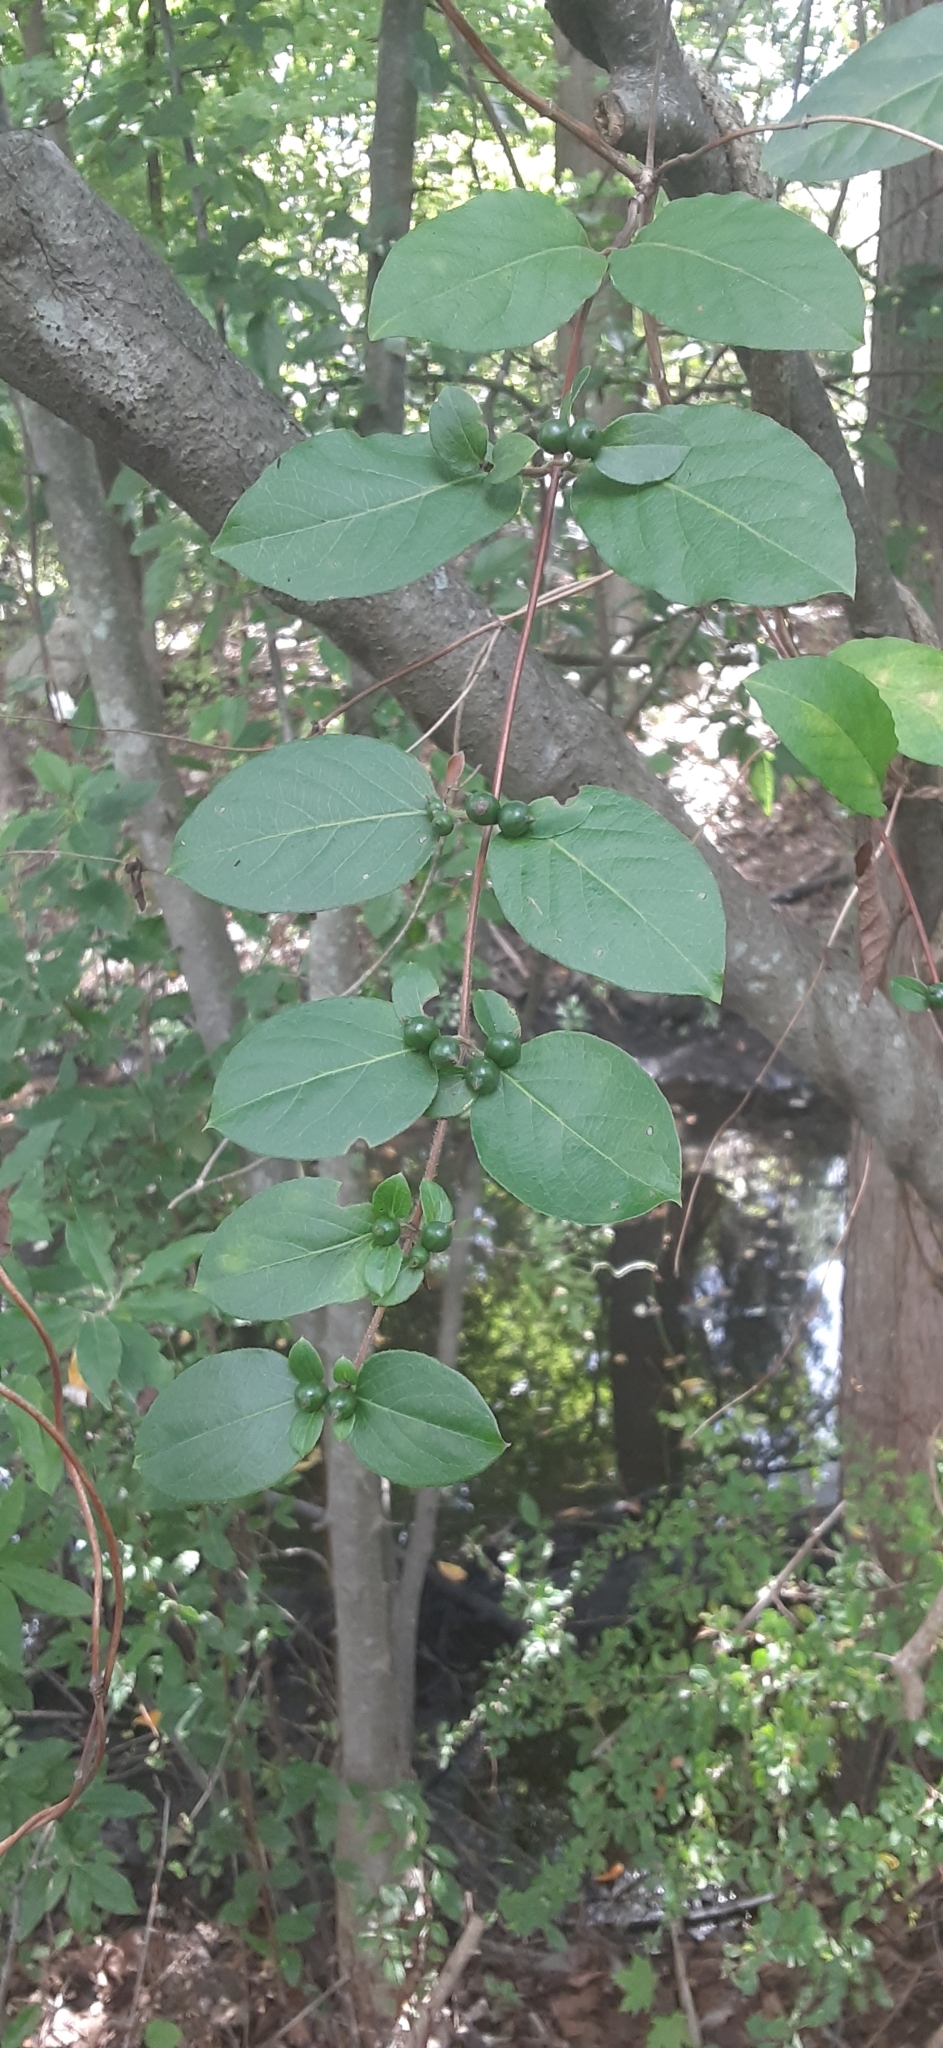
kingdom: Plantae
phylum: Tracheophyta
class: Magnoliopsida
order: Dipsacales
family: Caprifoliaceae
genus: Lonicera
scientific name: Lonicera japonica
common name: Japanese honeysuckle
